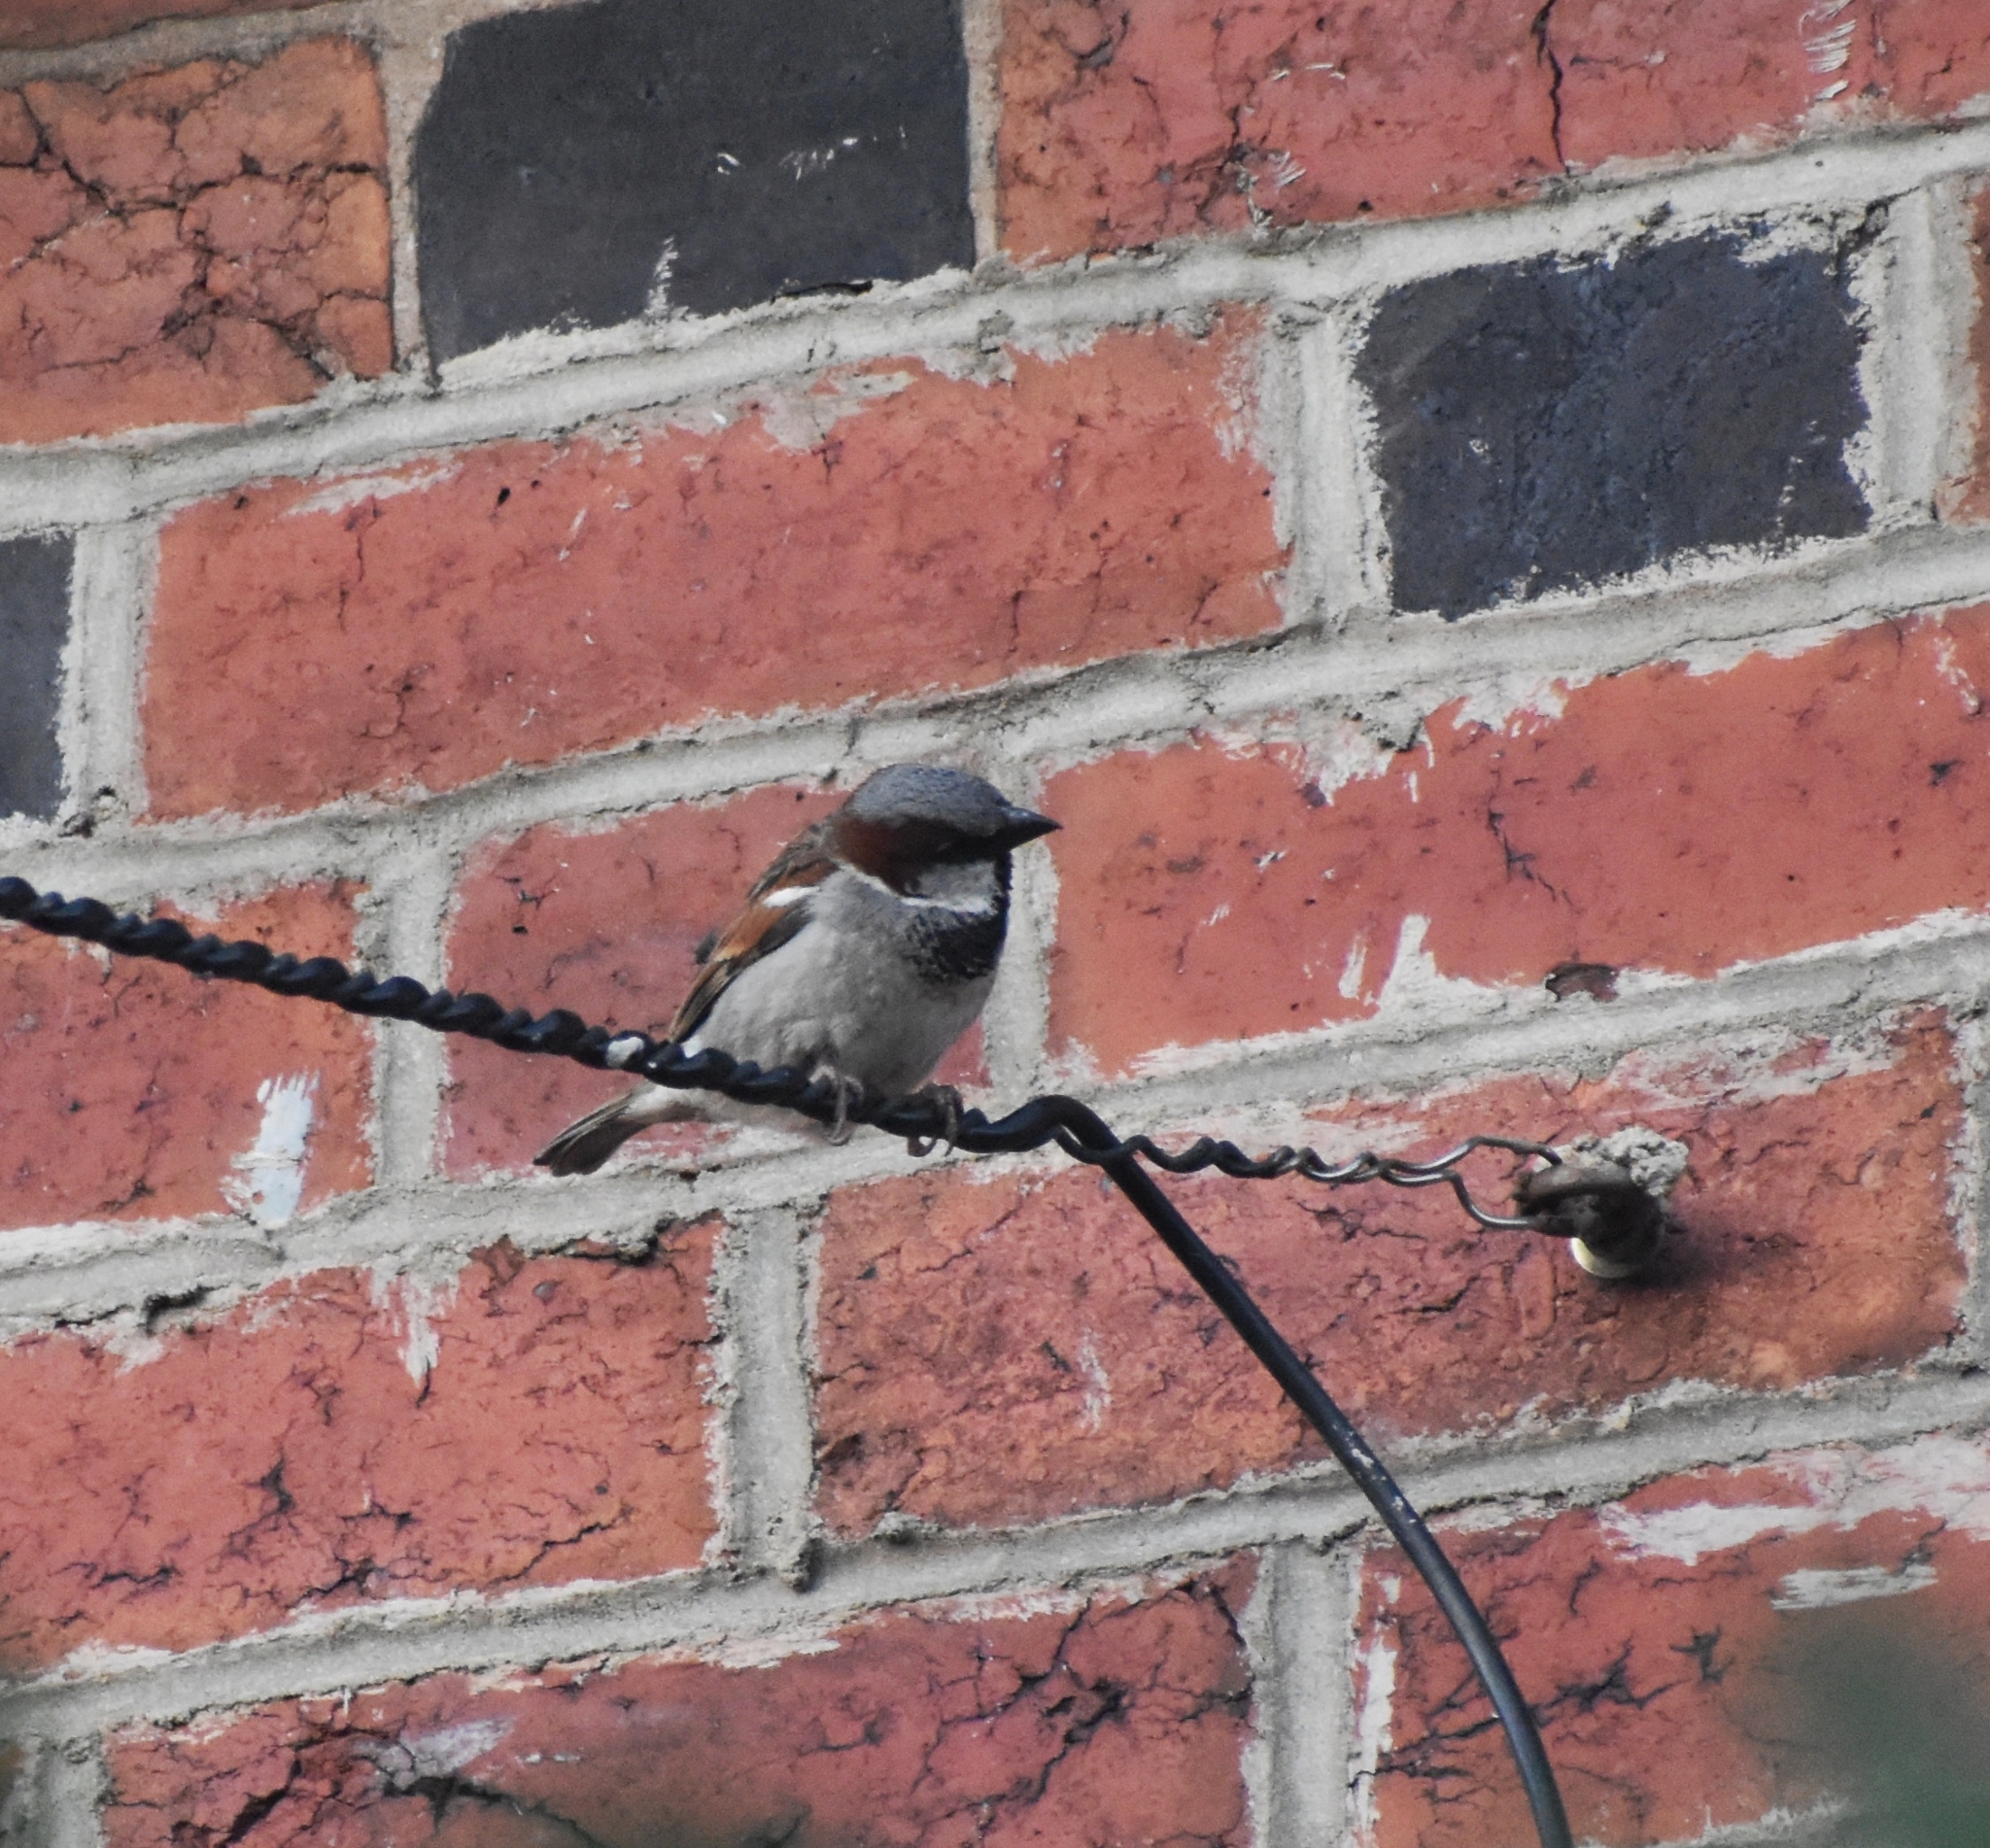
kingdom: Animalia
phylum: Chordata
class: Aves
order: Passeriformes
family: Passeridae
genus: Passer
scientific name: Passer domesticus
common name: House sparrow
